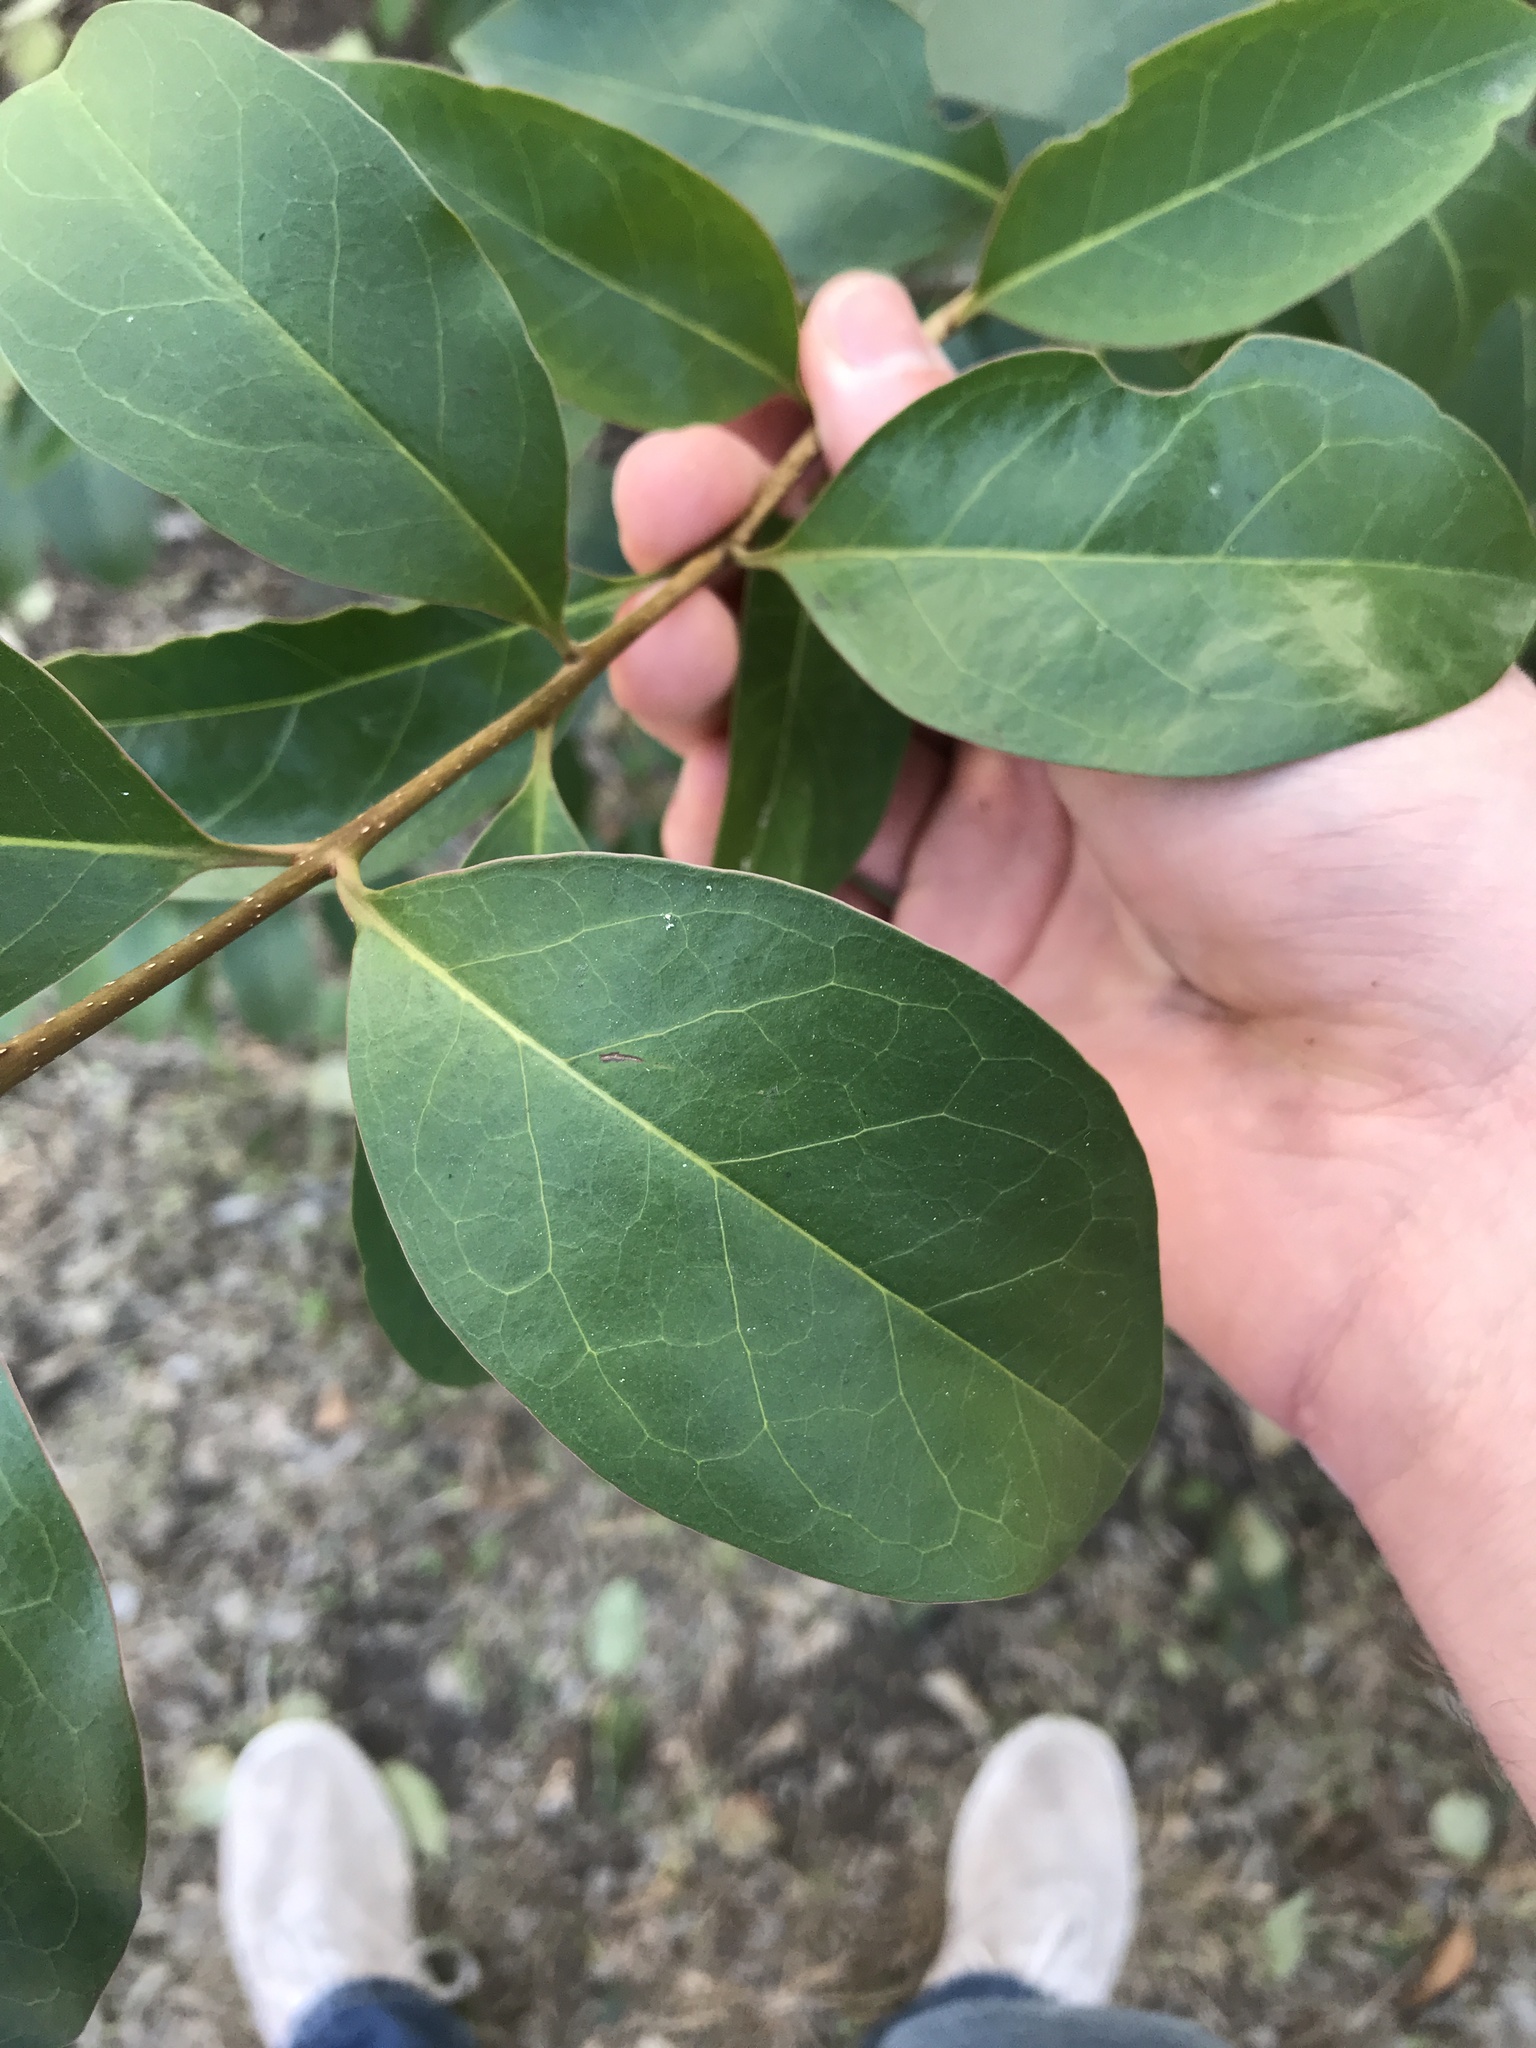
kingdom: Plantae
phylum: Tracheophyta
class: Magnoliopsida
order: Lamiales
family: Oleaceae
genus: Ligustrum
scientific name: Ligustrum lucidum
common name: Glossy privet
